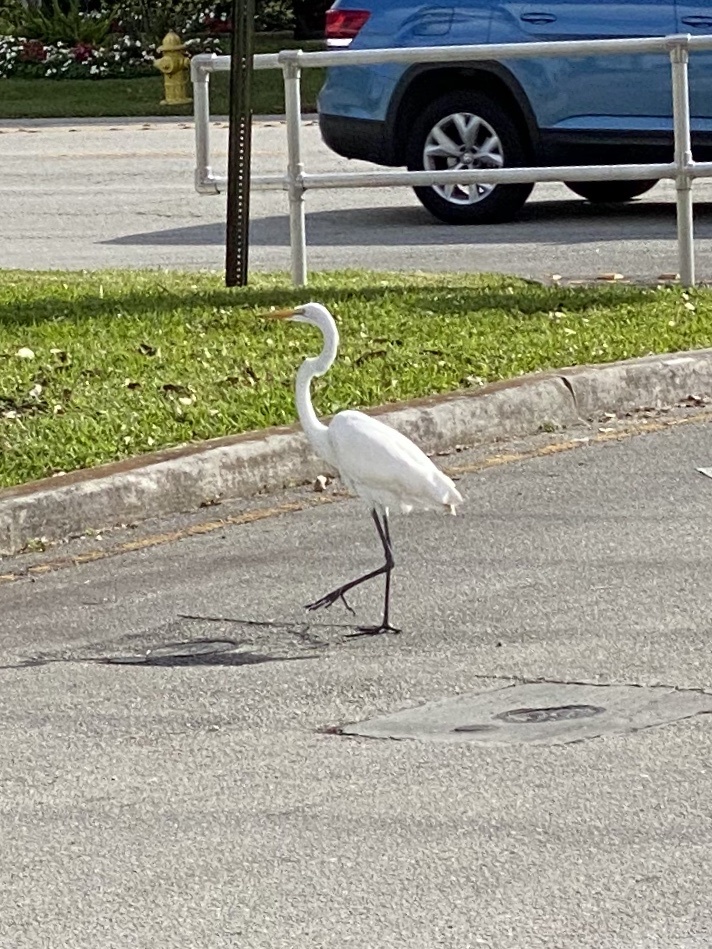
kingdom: Animalia
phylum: Chordata
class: Aves
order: Pelecaniformes
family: Ardeidae
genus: Ardea
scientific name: Ardea alba
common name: Great egret
